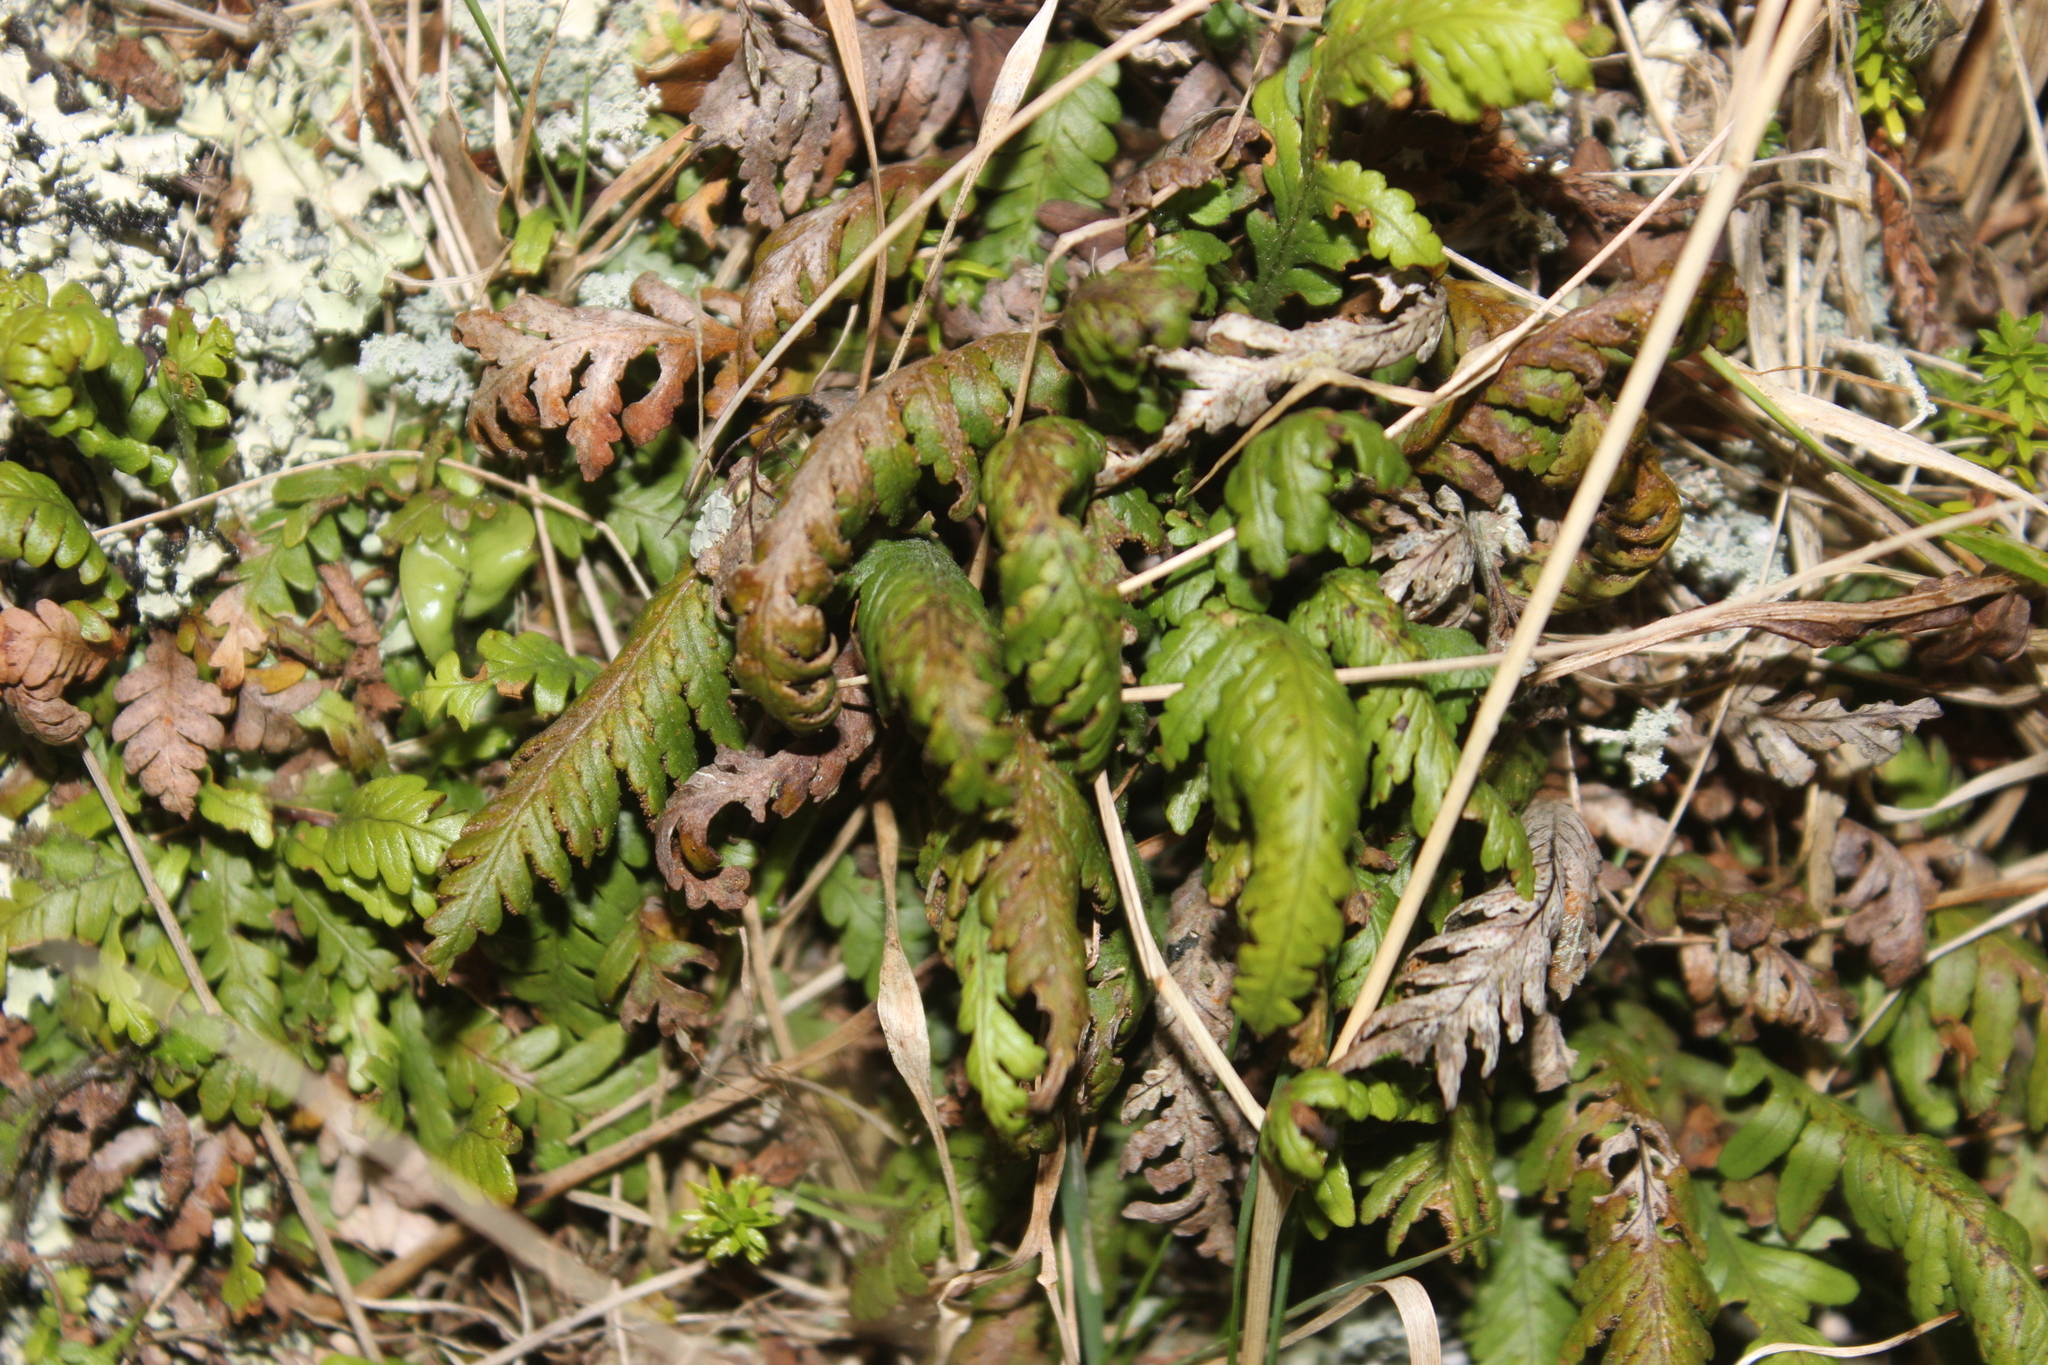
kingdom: Plantae
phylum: Tracheophyta
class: Polypodiopsida
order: Polypodiales
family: Polypodiaceae
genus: Notogrammitis
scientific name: Notogrammitis heterophylla
